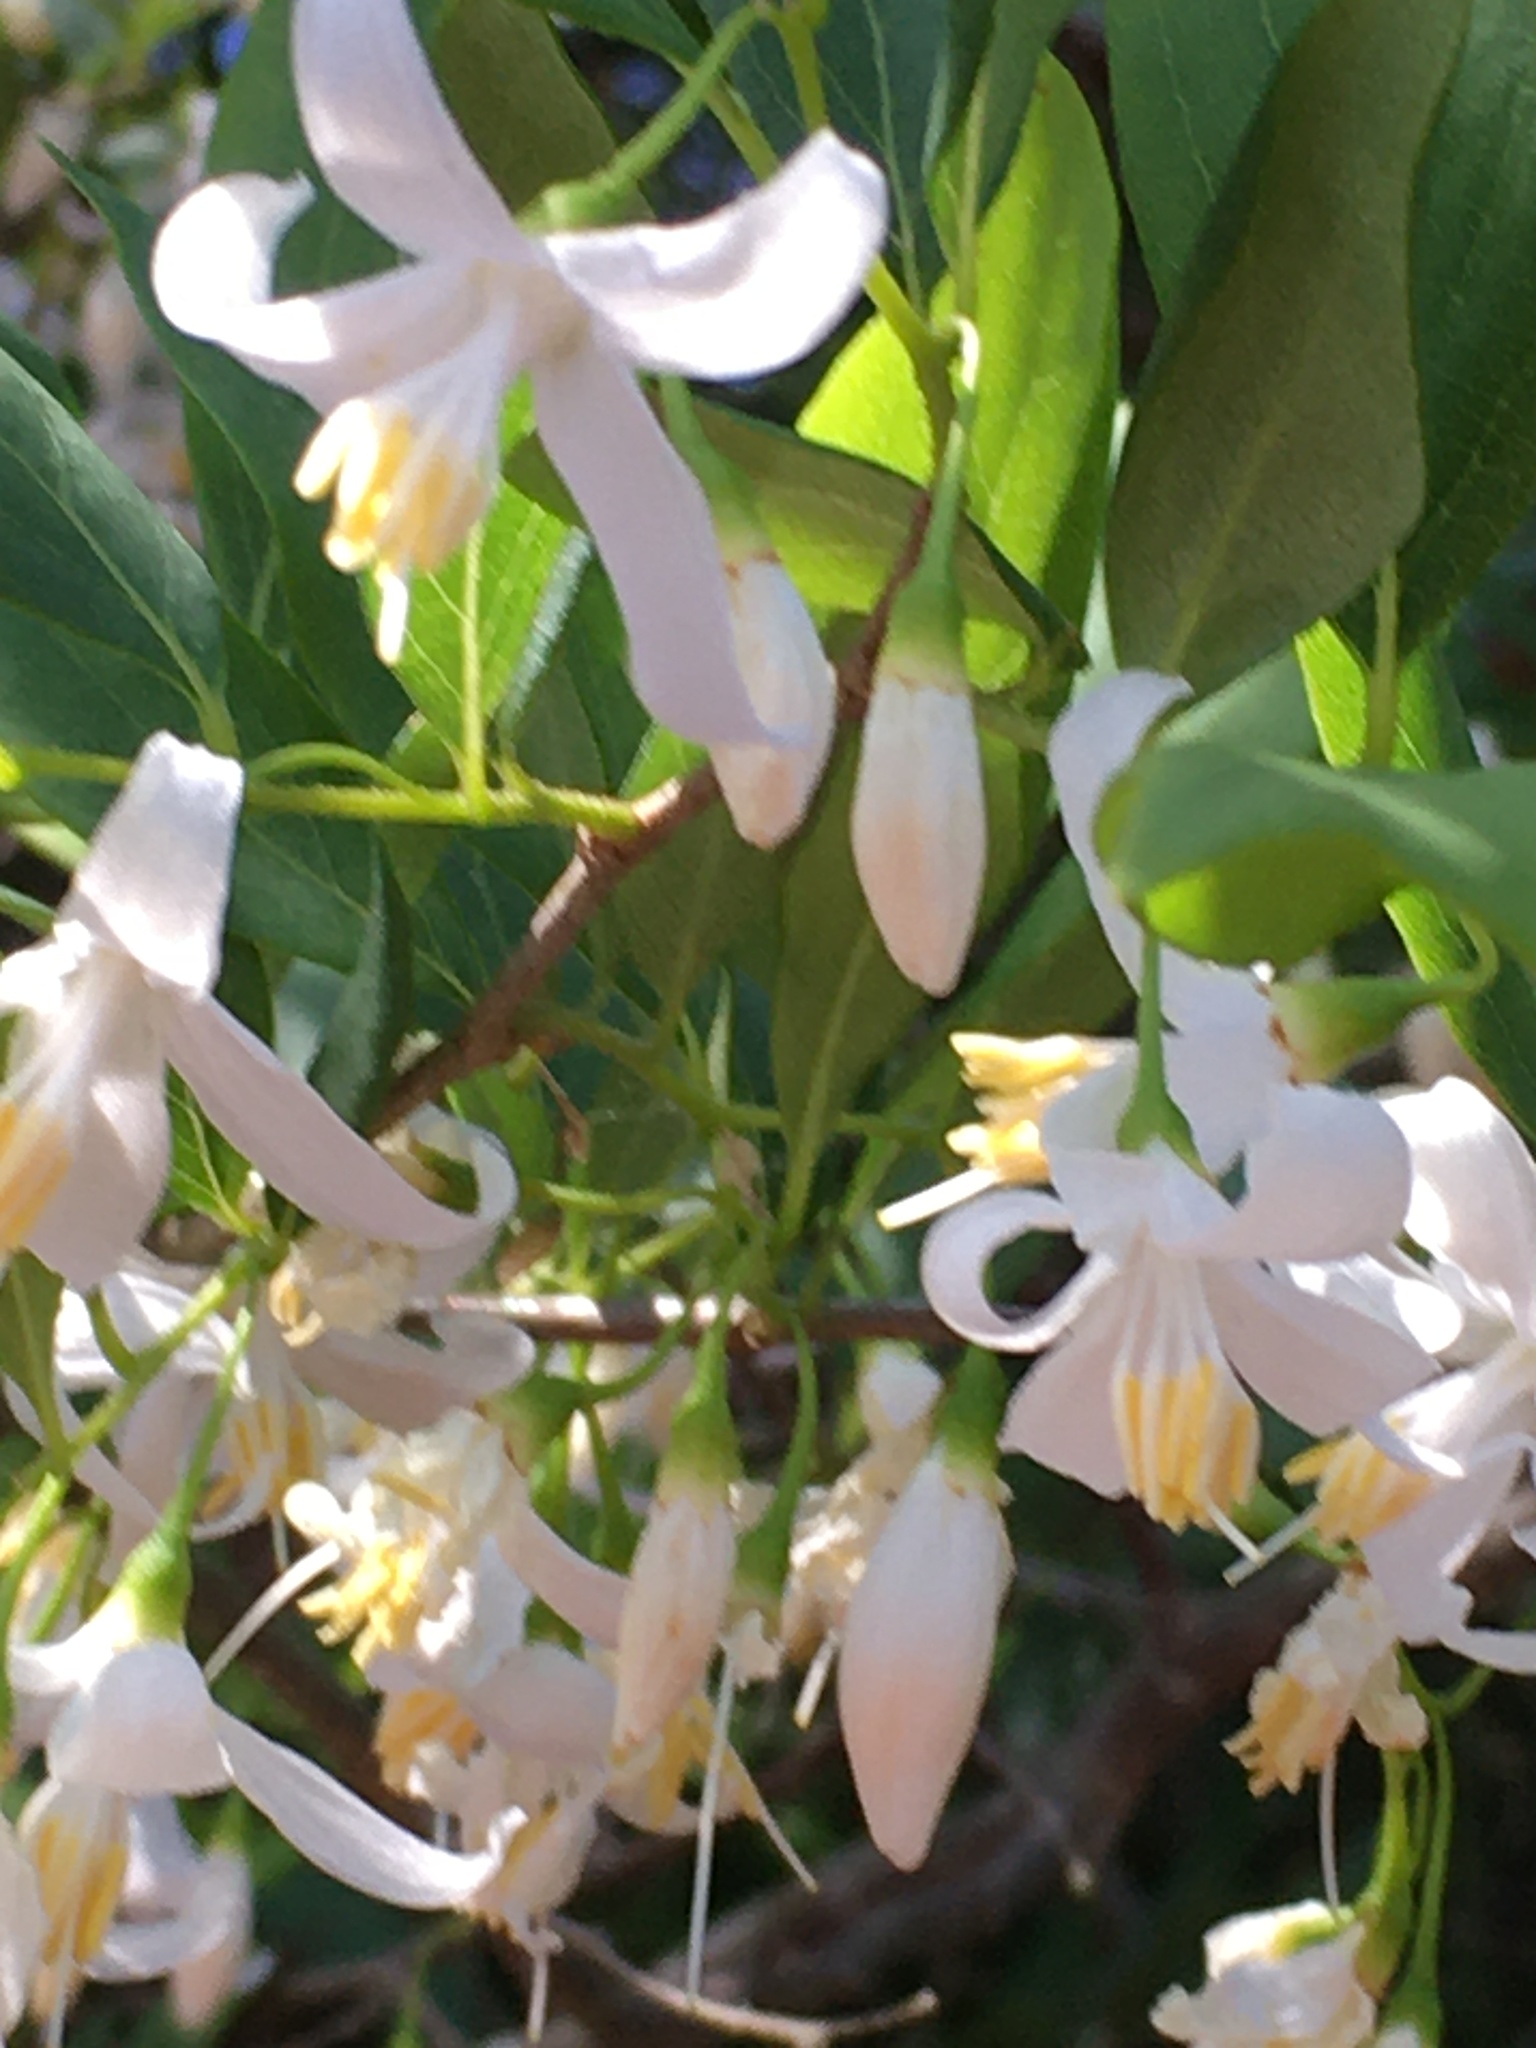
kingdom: Plantae
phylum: Tracheophyta
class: Magnoliopsida
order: Ericales
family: Styracaceae
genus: Styrax
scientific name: Styrax americanus
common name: American snowbell
